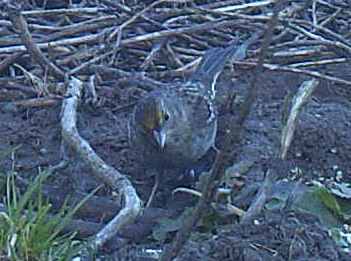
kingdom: Animalia
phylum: Chordata
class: Aves
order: Passeriformes
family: Passerellidae
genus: Zonotrichia
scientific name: Zonotrichia atricapilla
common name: Golden-crowned sparrow
